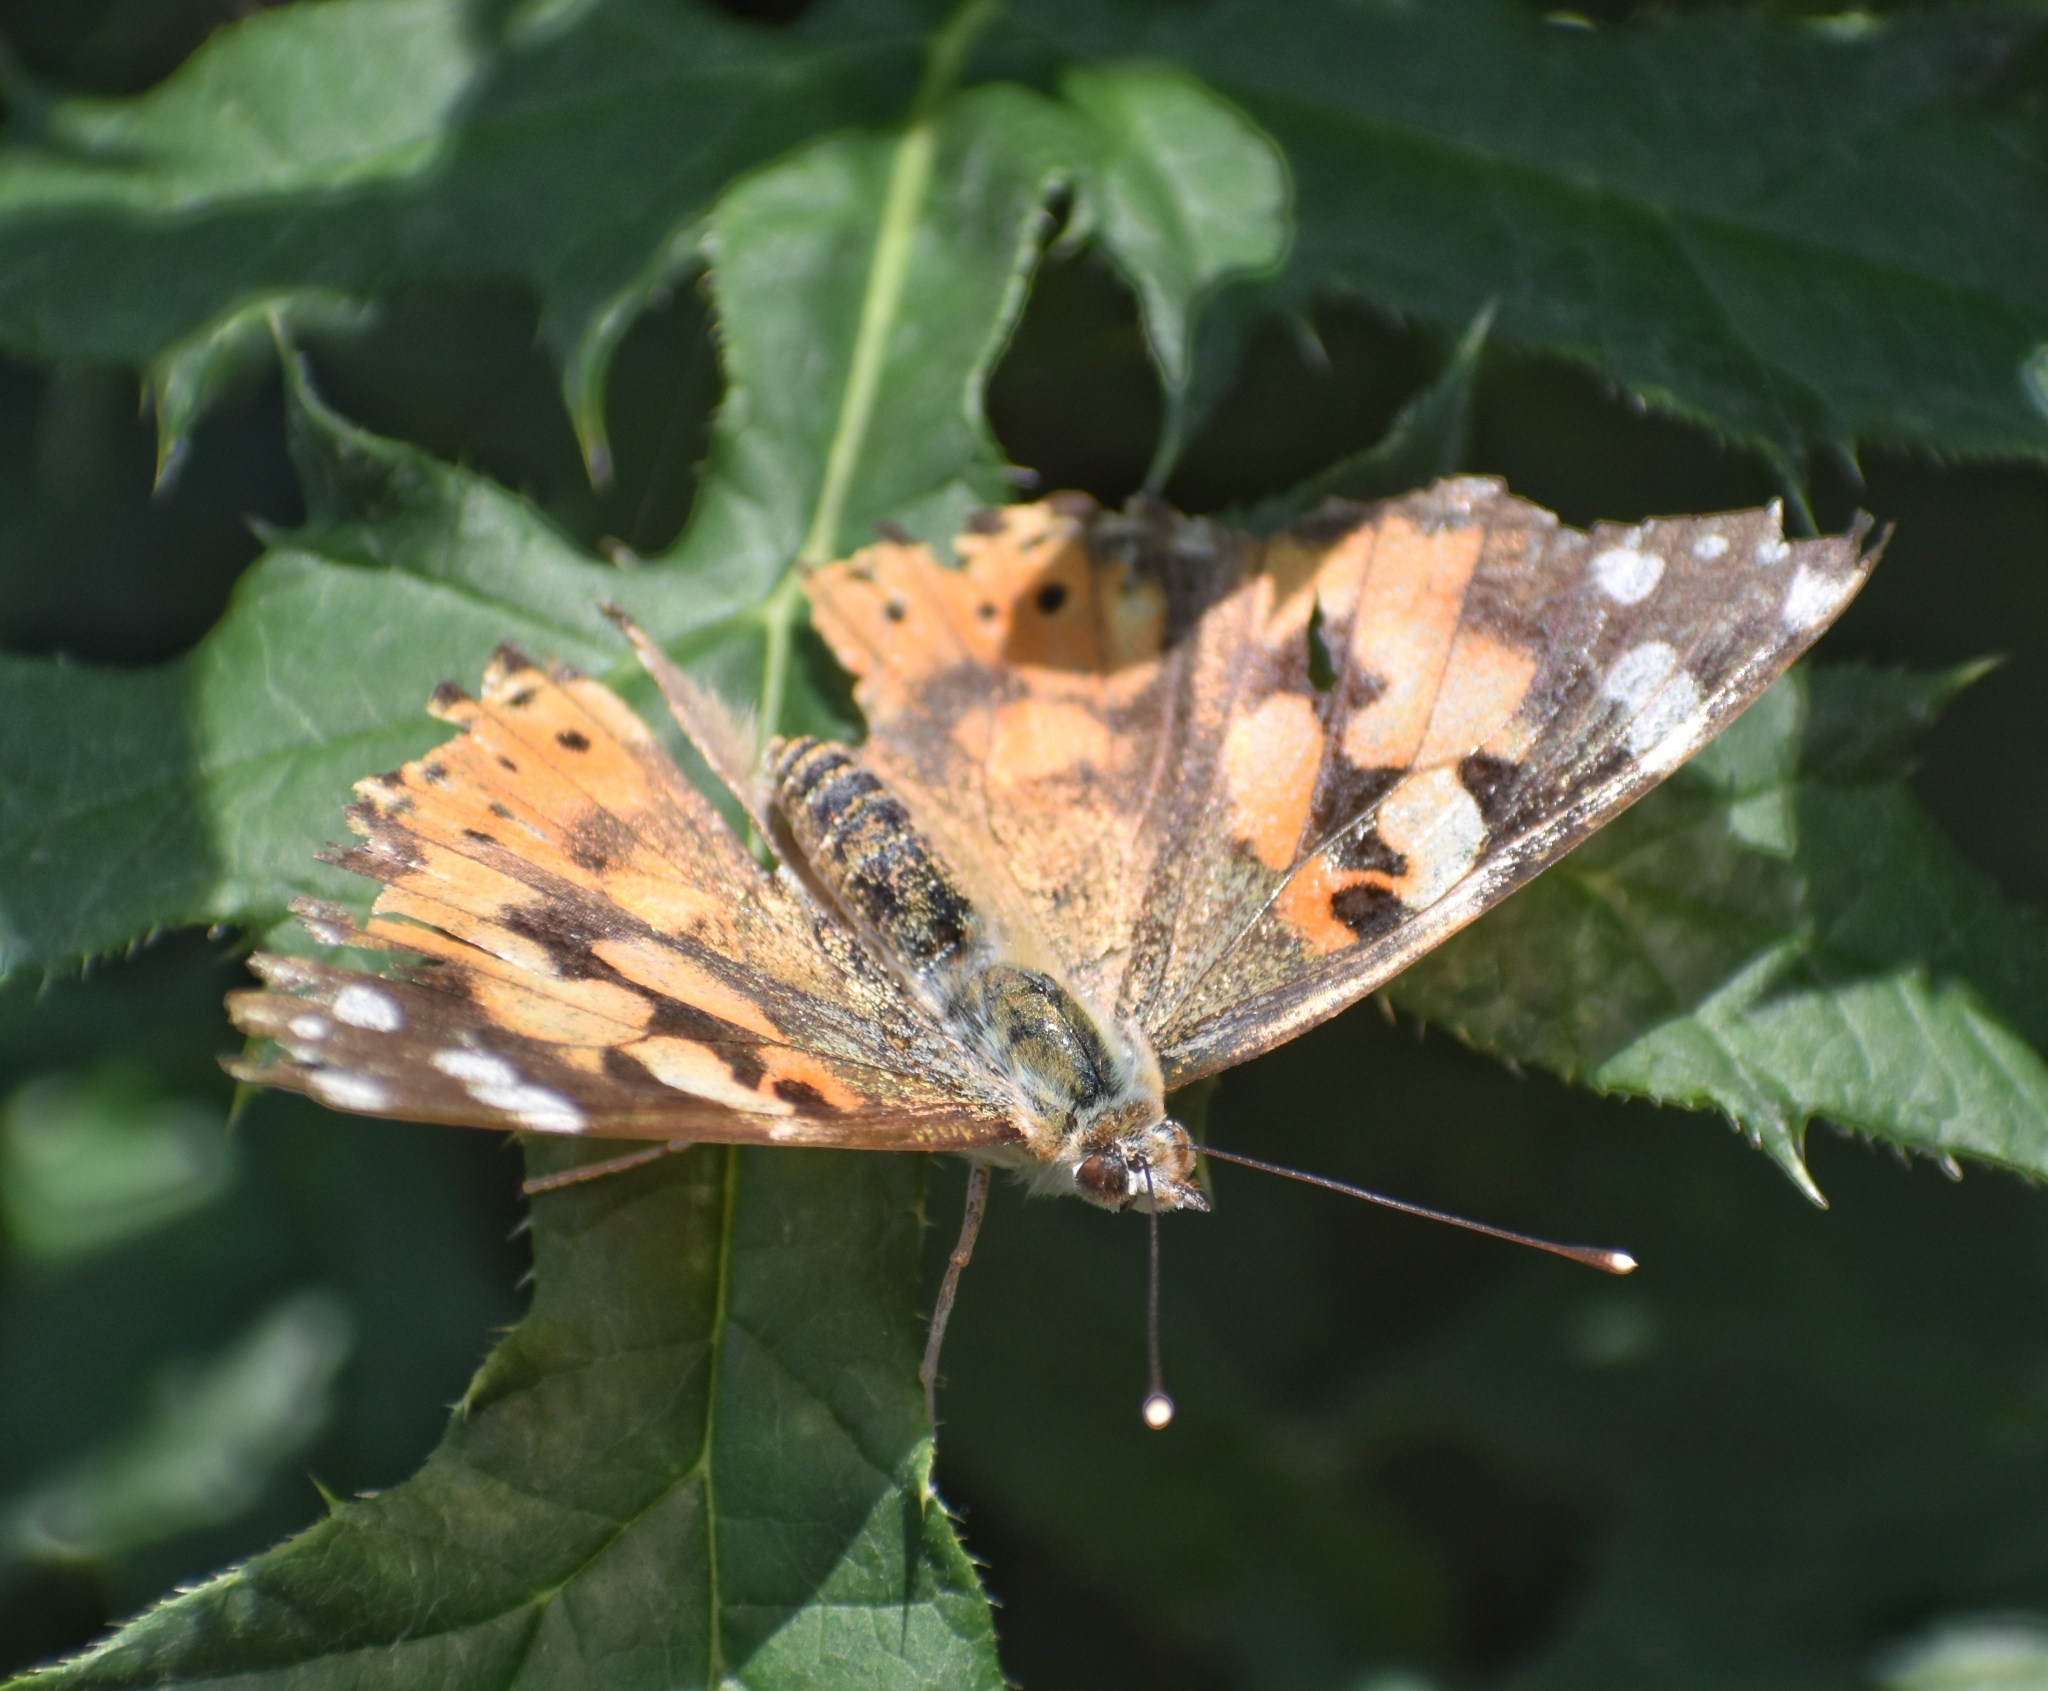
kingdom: Animalia
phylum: Arthropoda
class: Insecta
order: Lepidoptera
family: Nymphalidae
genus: Vanessa
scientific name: Vanessa cardui
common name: Painted lady
